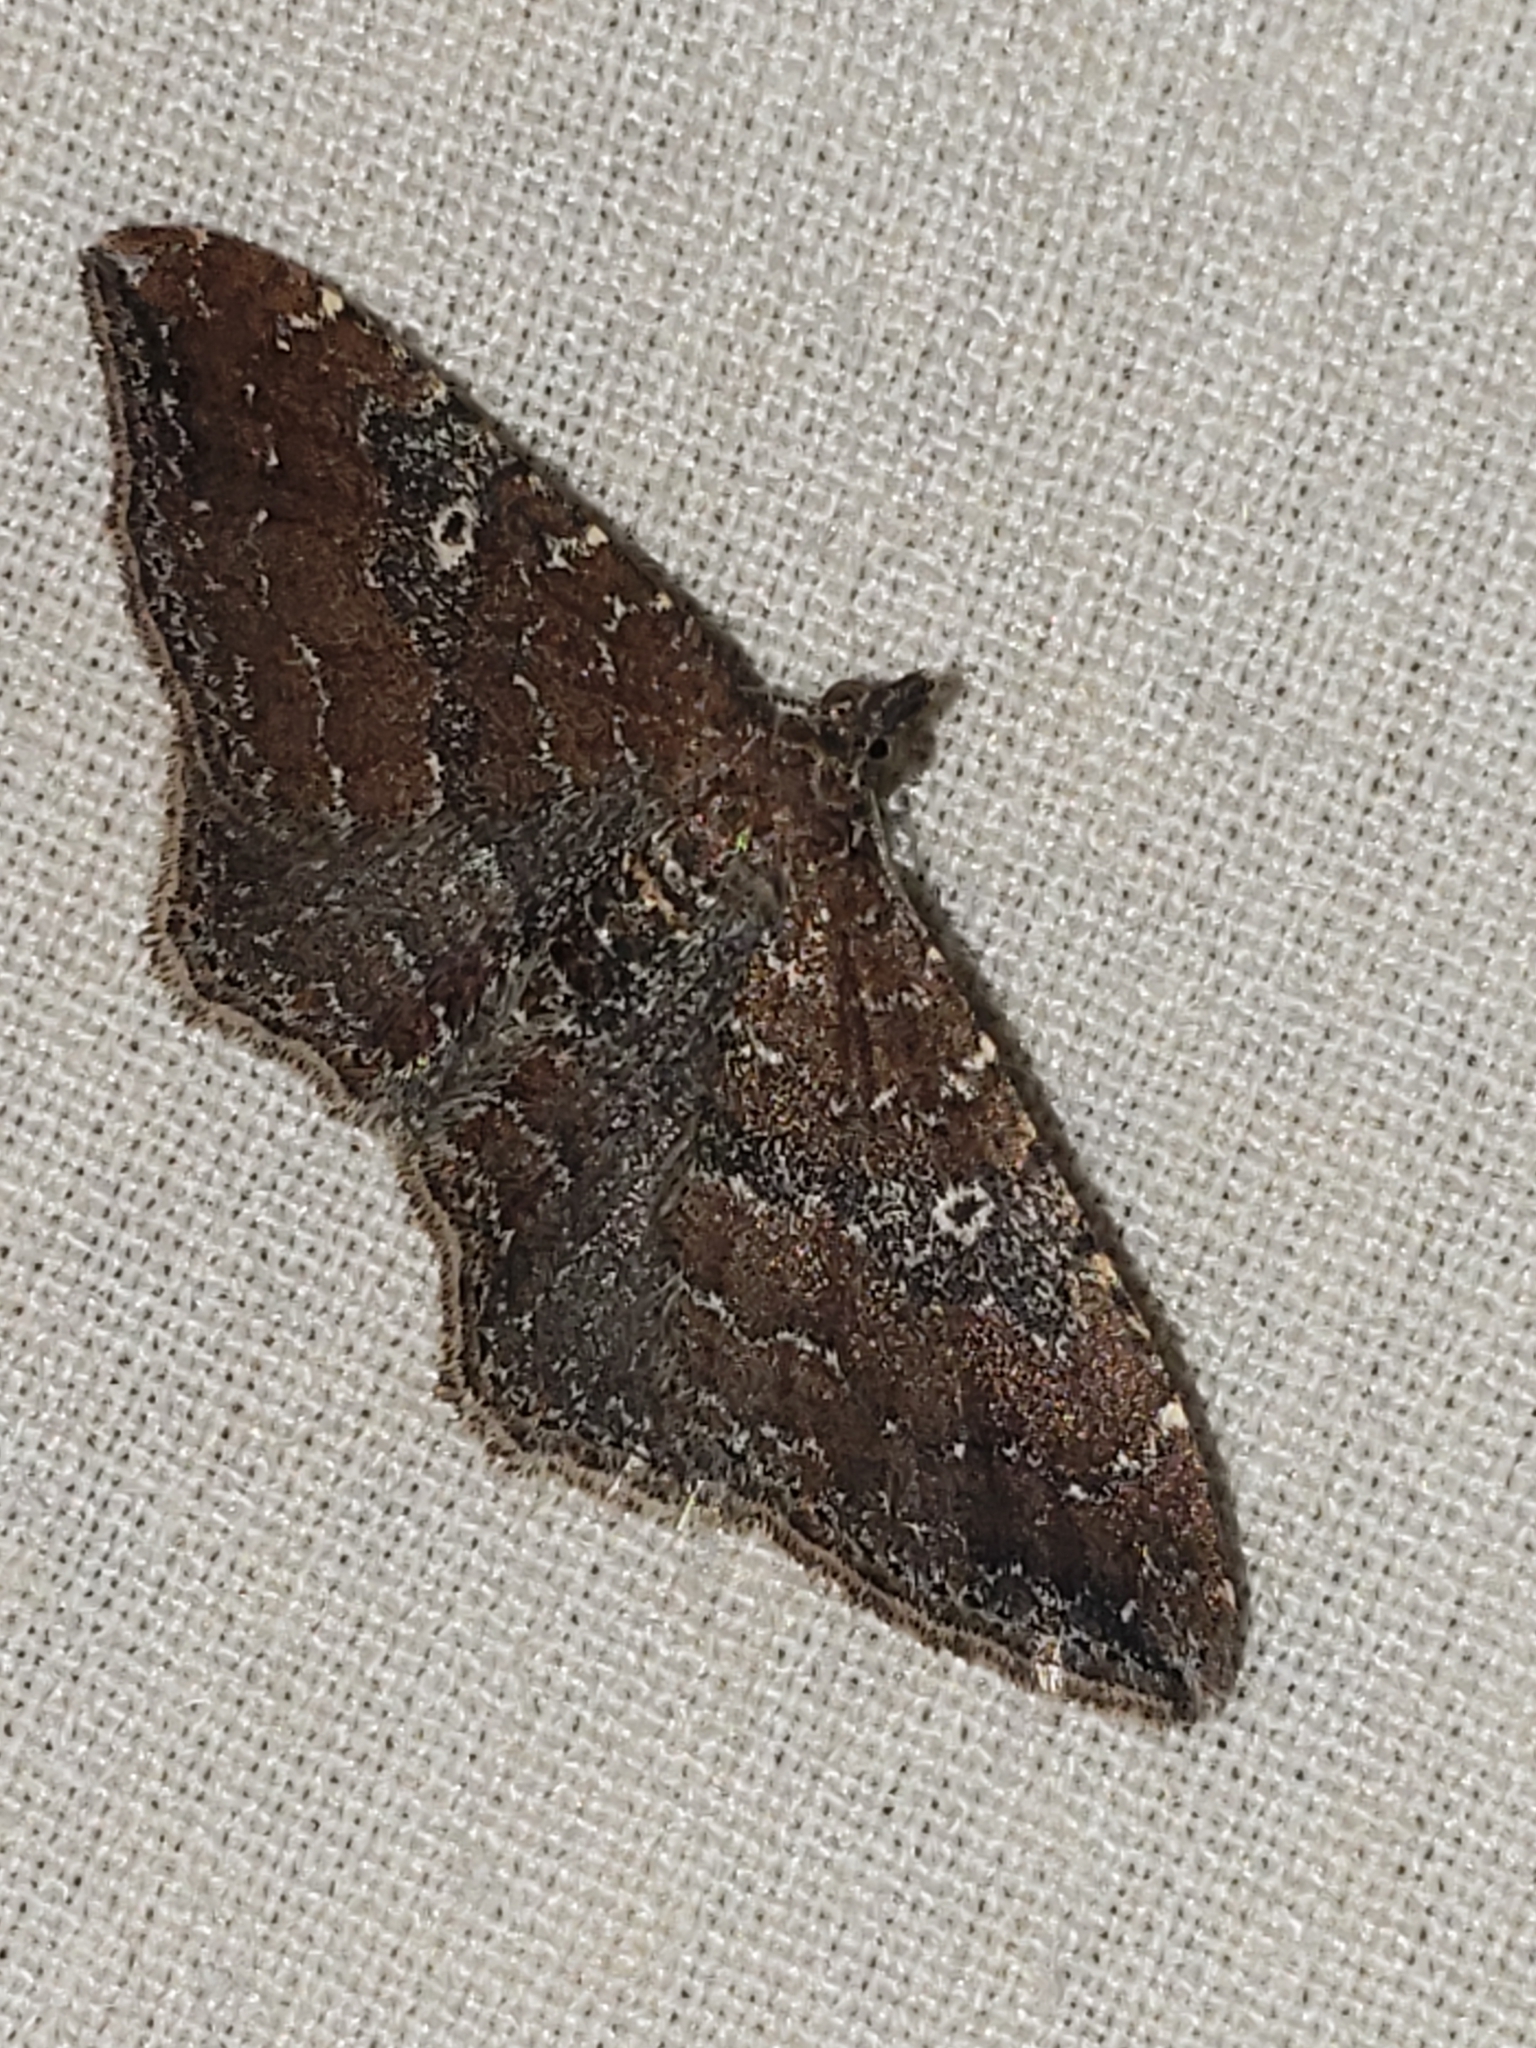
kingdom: Animalia
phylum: Arthropoda
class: Insecta
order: Lepidoptera
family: Geometridae
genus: Orthonama
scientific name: Orthonama obstipata
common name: The gem
